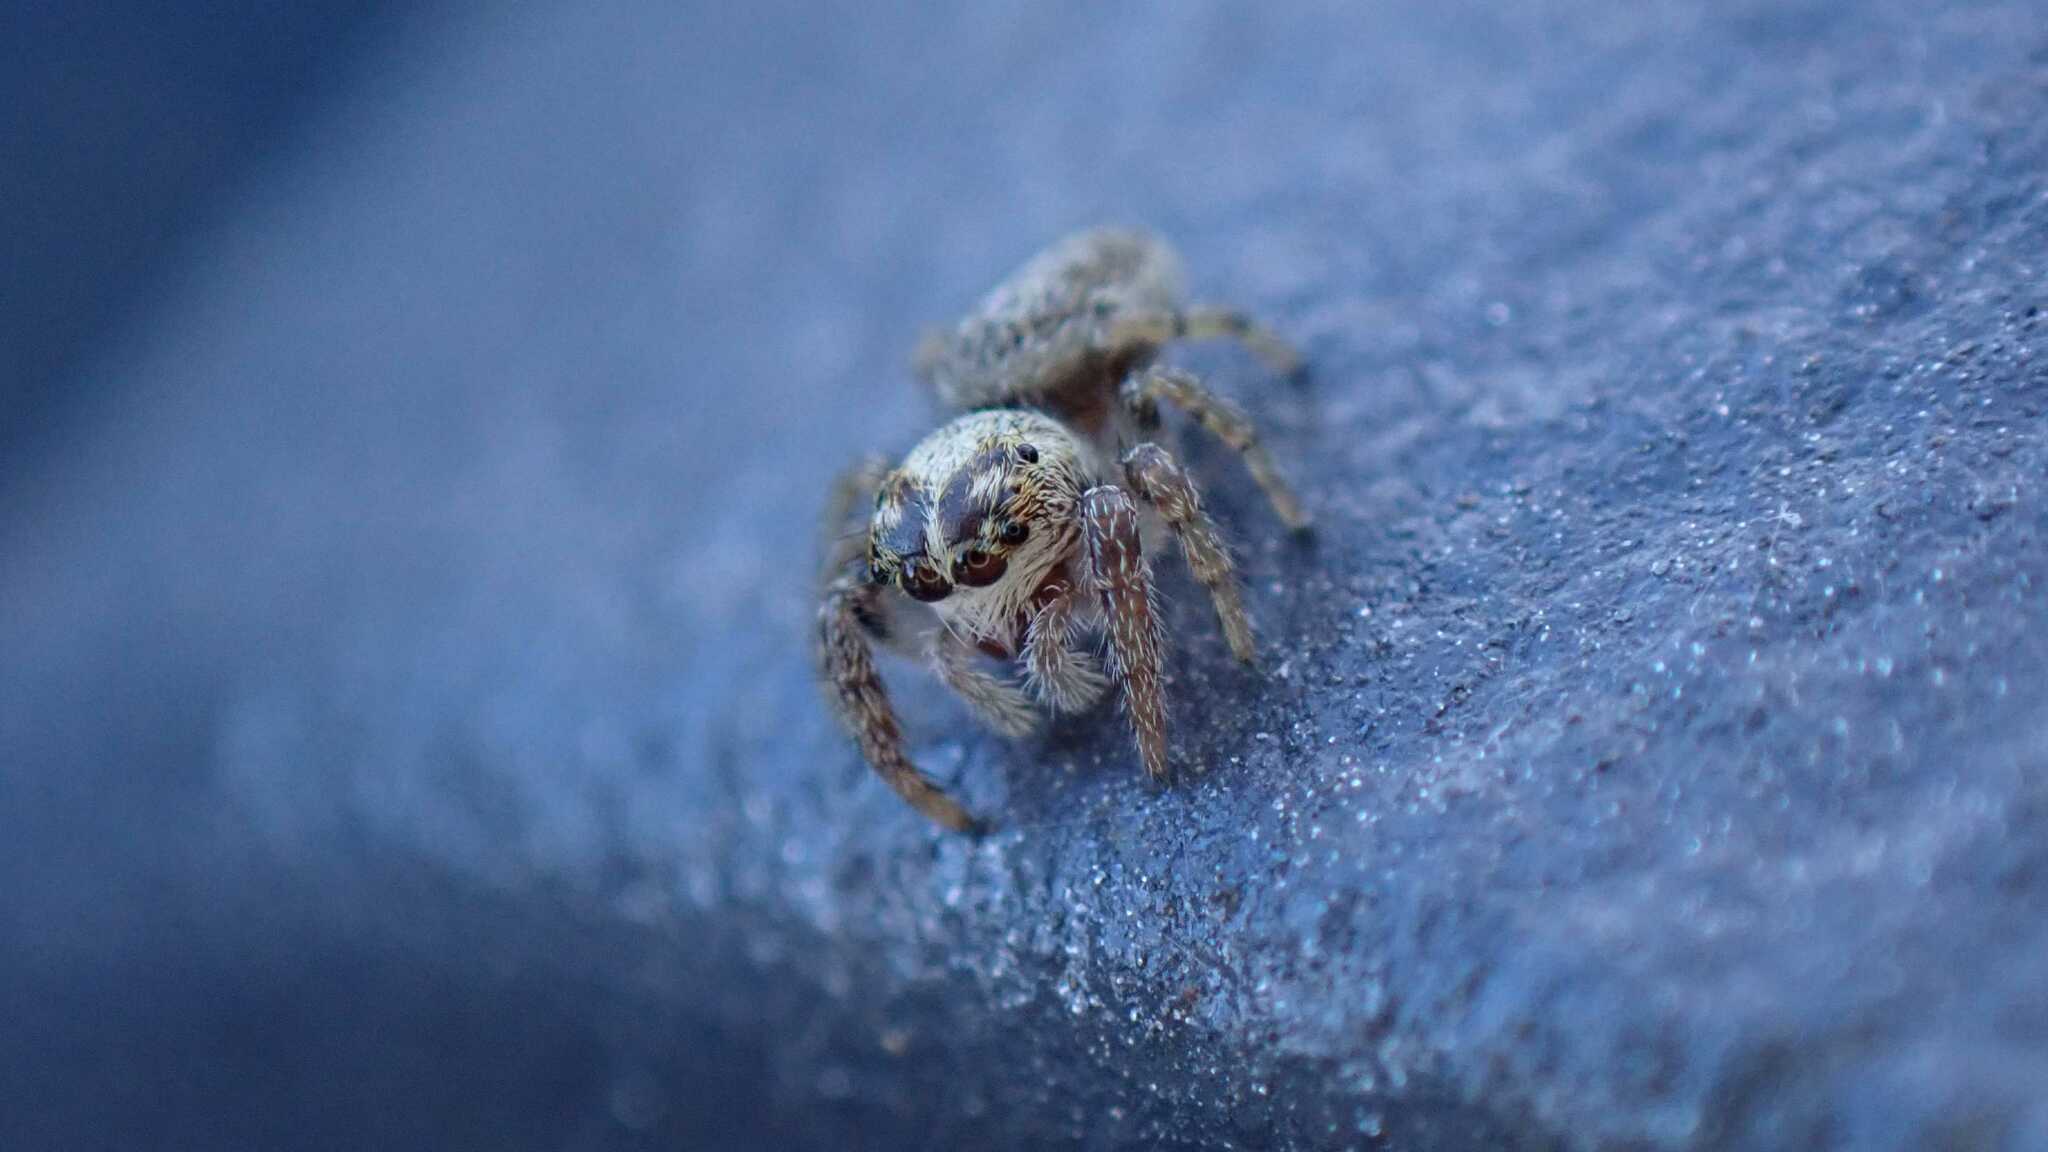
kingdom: Animalia
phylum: Arthropoda
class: Arachnida
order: Araneae
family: Salticidae
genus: Macaroeris
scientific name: Macaroeris nidicolens
